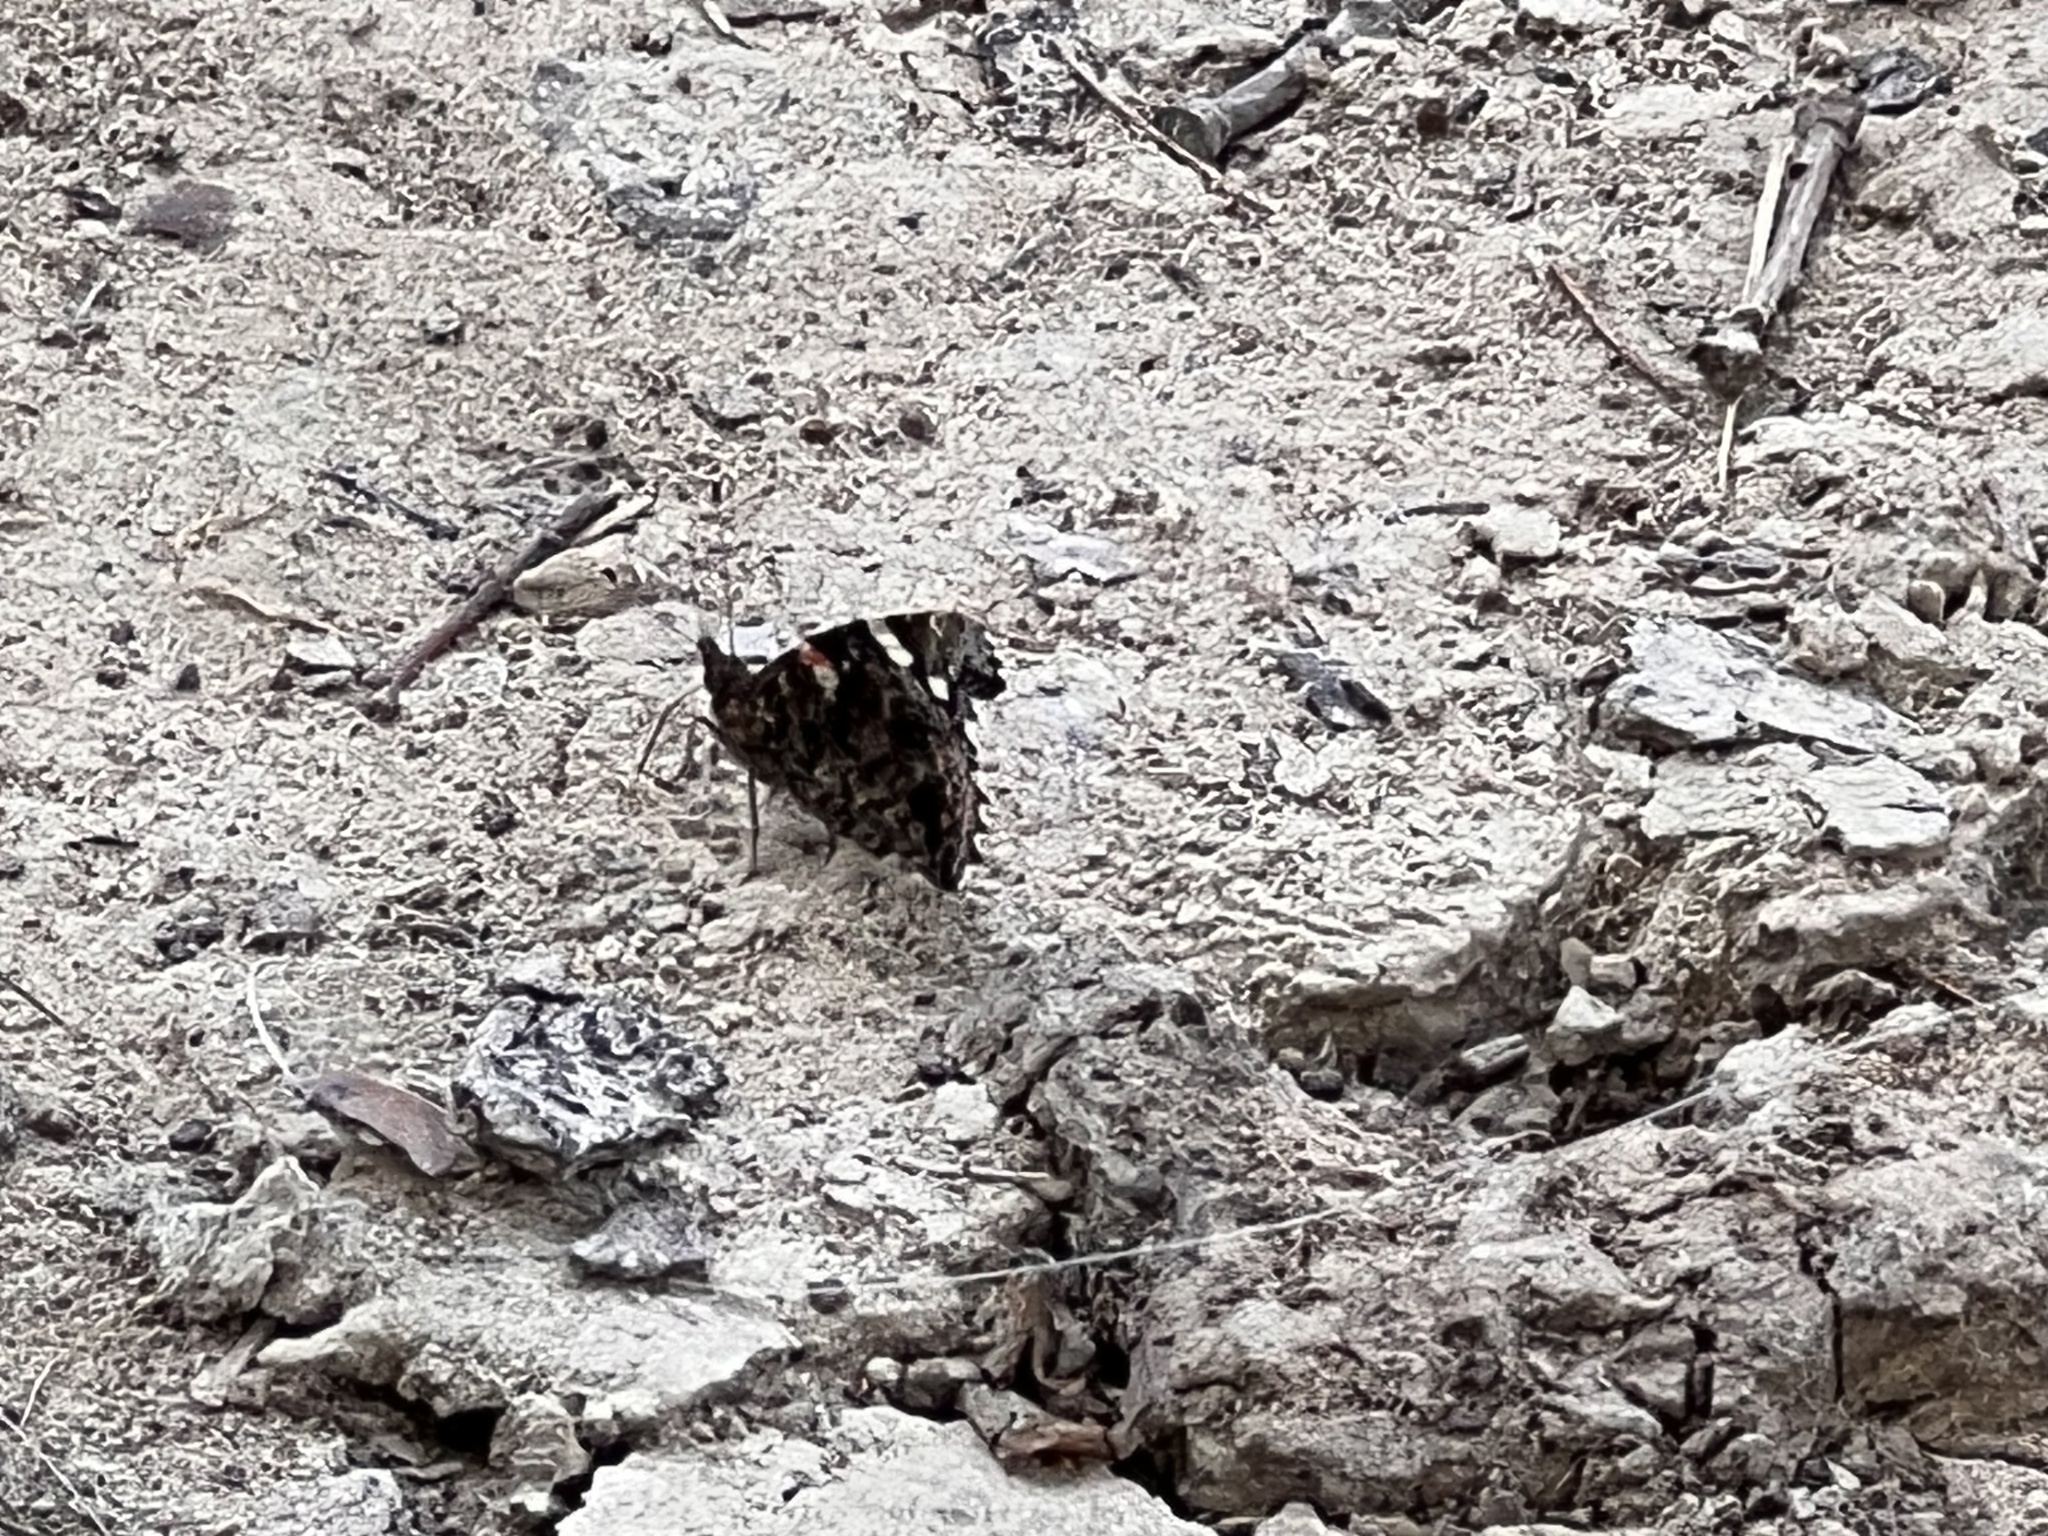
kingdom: Animalia
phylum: Arthropoda
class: Insecta
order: Lepidoptera
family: Nymphalidae
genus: Vanessa
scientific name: Vanessa atalanta
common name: Red admiral
